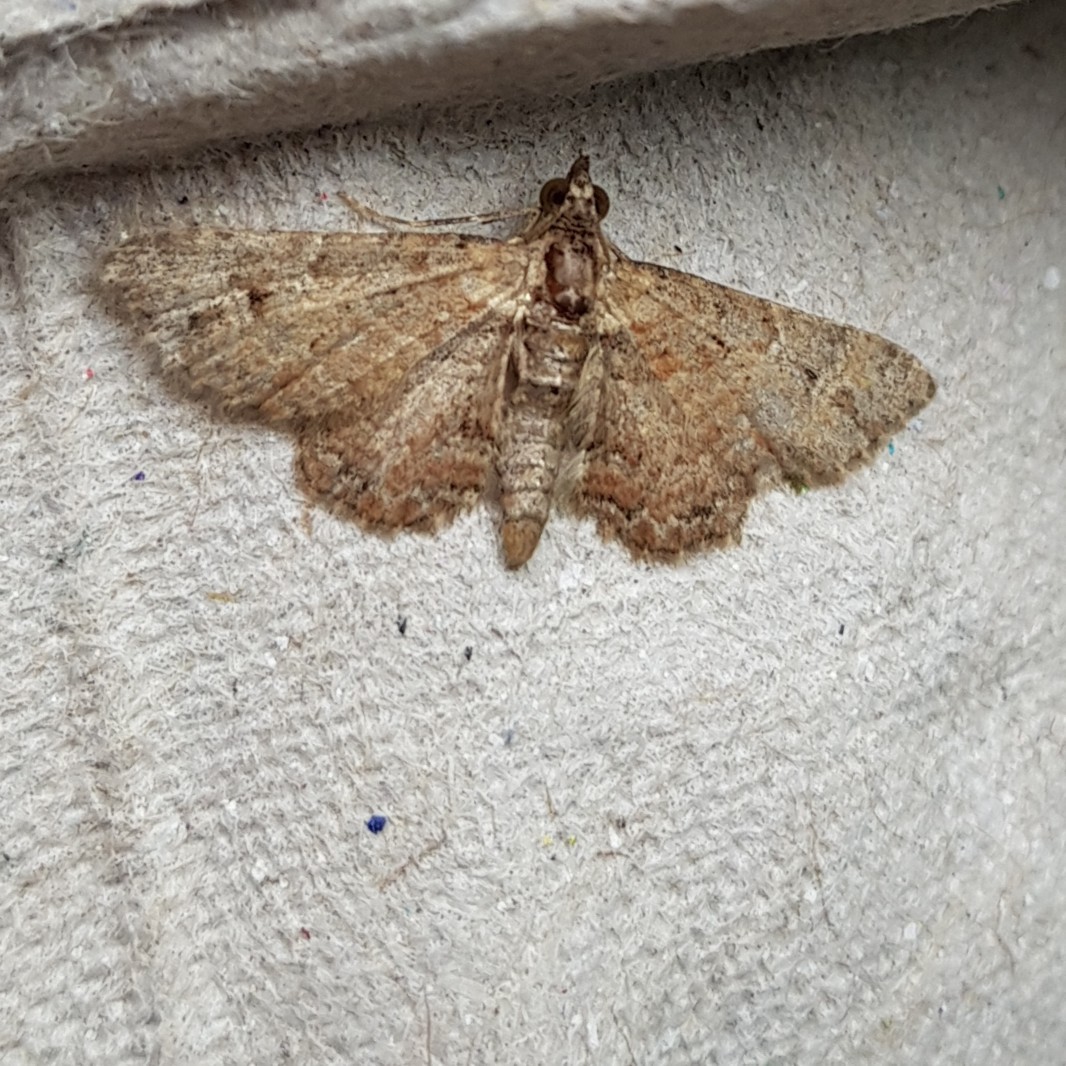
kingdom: Animalia
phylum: Arthropoda
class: Insecta
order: Lepidoptera
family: Geometridae
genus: Gymnoscelis
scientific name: Gymnoscelis rufifasciata
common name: Double-striped pug
